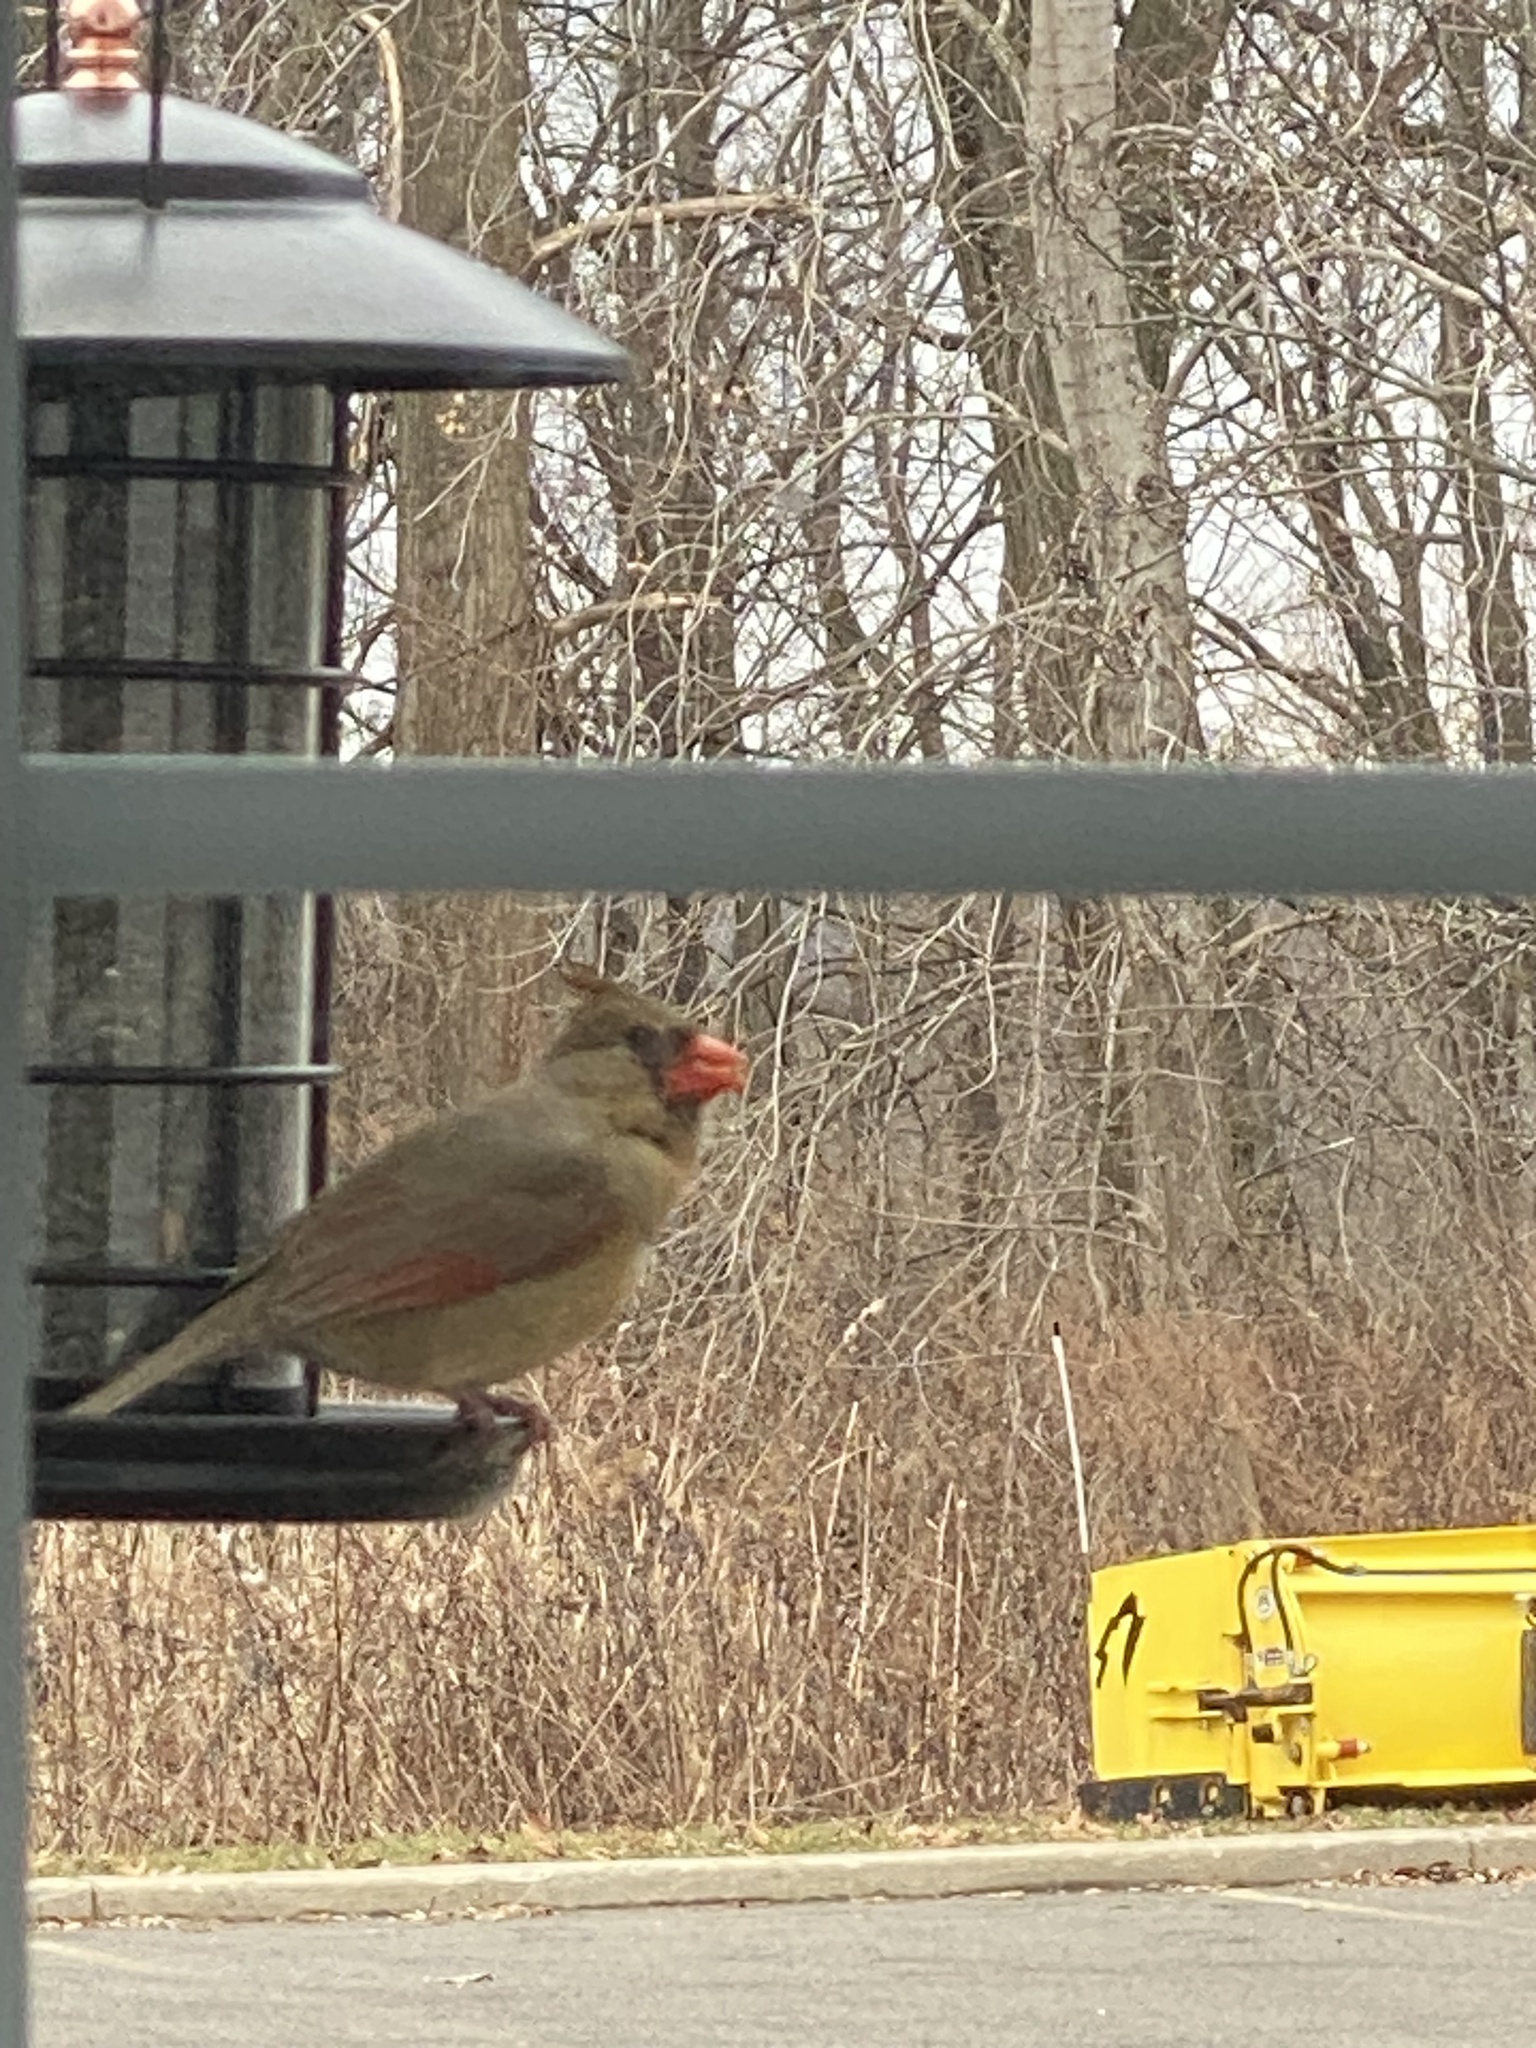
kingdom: Animalia
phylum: Chordata
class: Aves
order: Passeriformes
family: Cardinalidae
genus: Cardinalis
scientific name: Cardinalis cardinalis
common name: Northern cardinal
